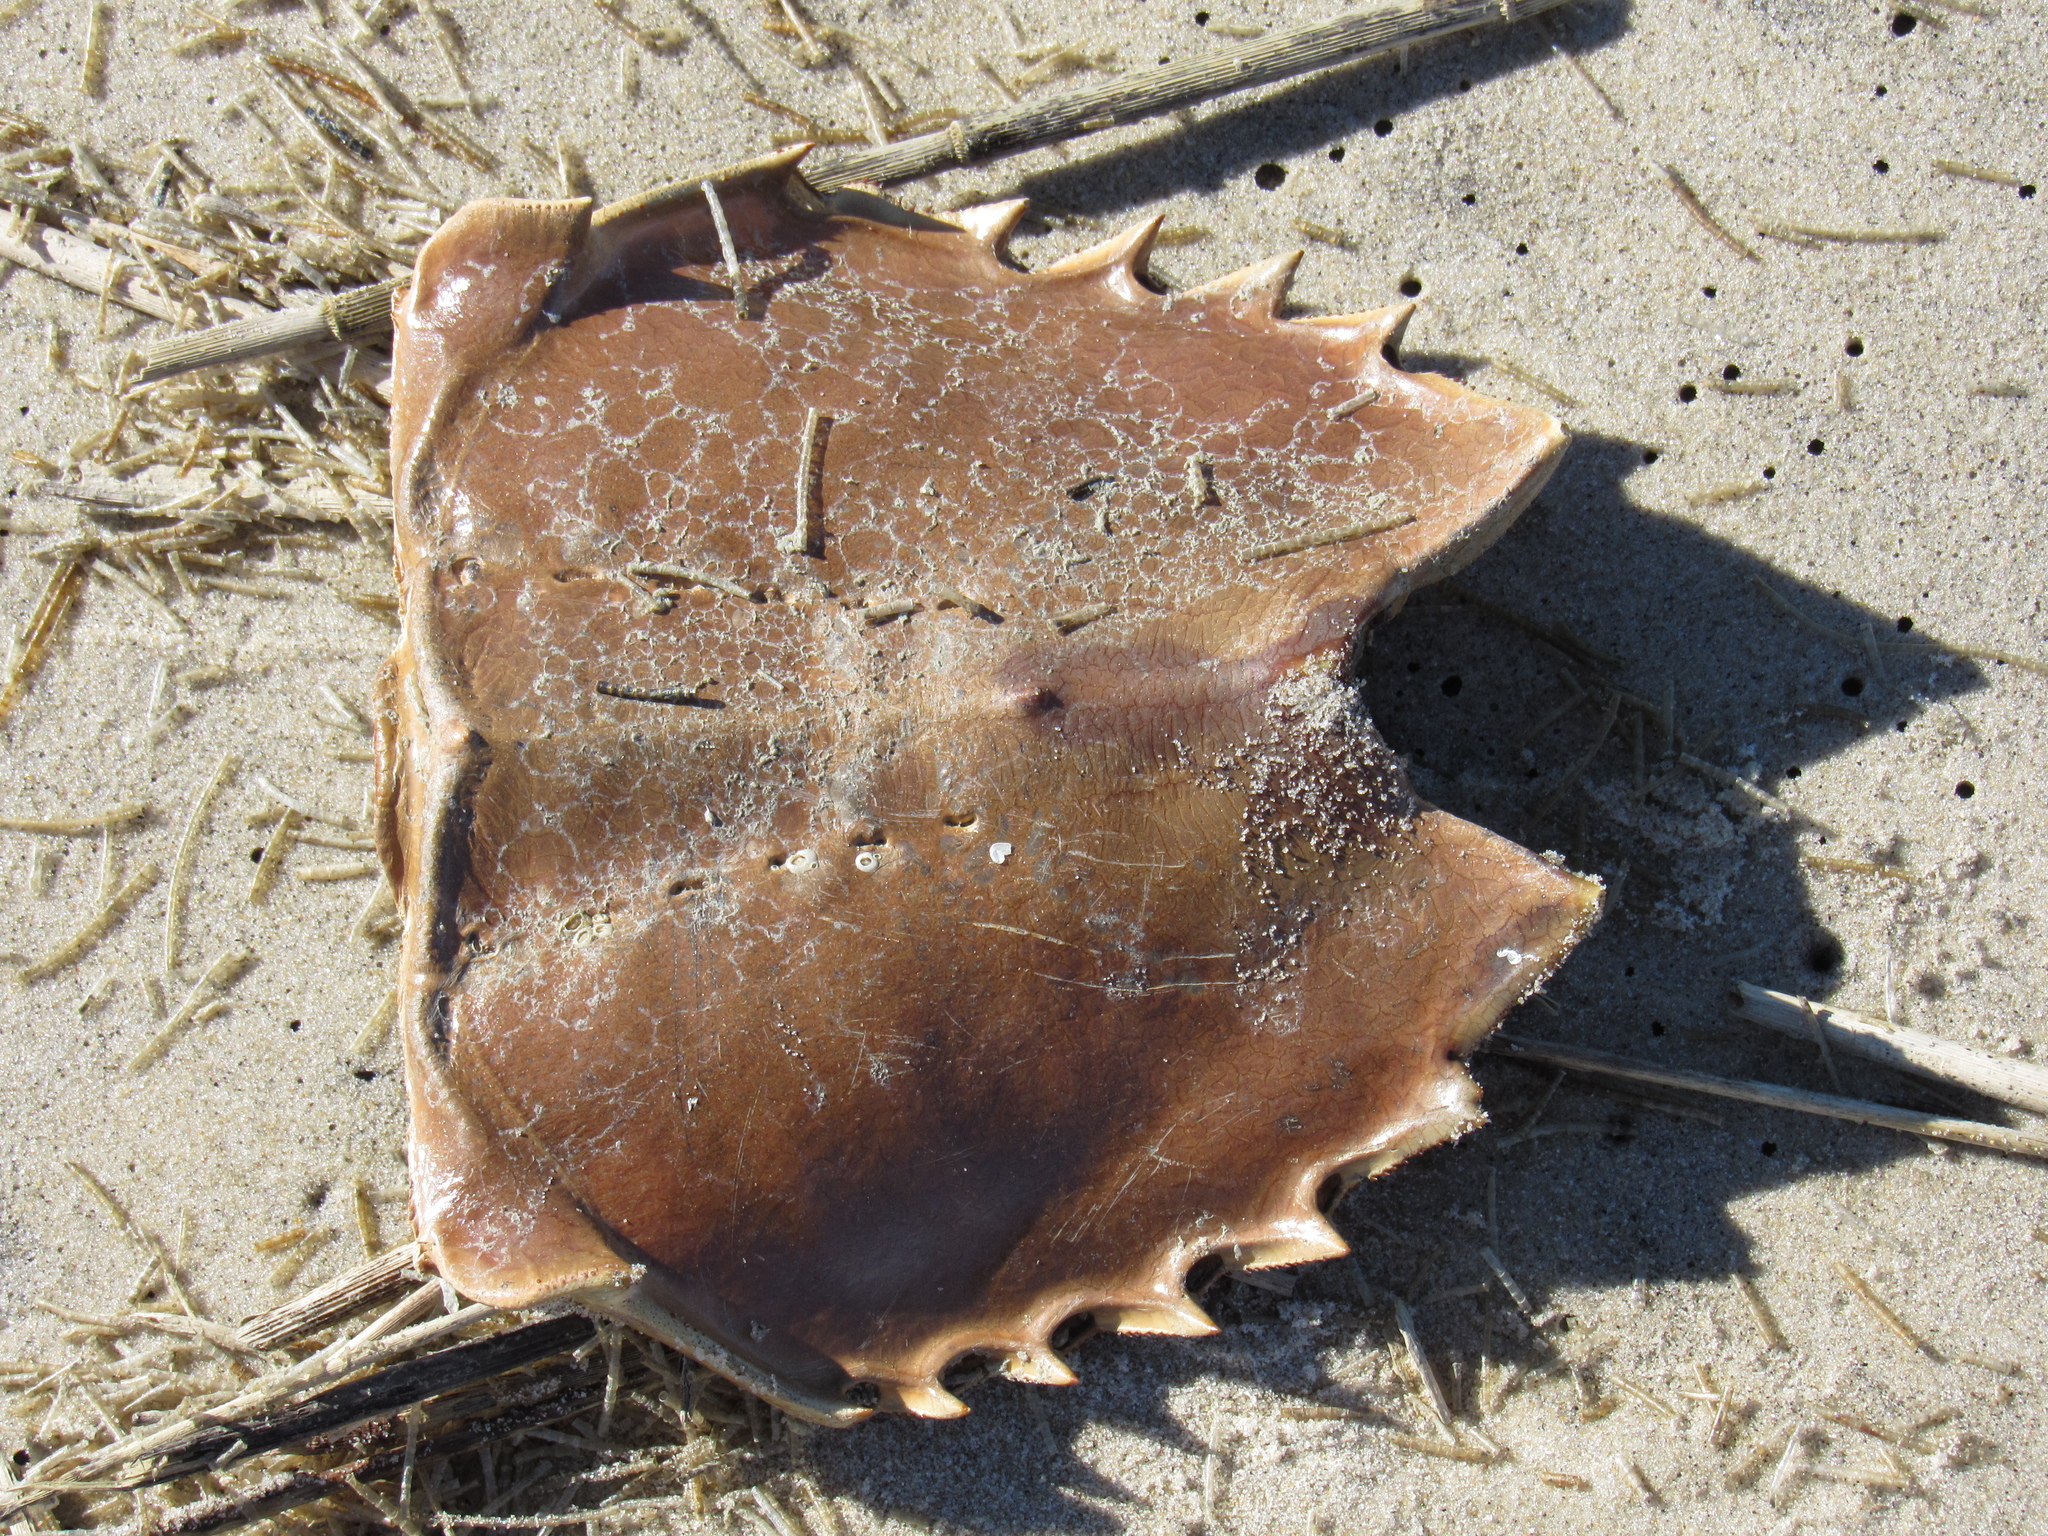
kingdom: Animalia
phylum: Arthropoda
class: Merostomata
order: Xiphosurida
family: Limulidae
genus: Limulus
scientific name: Limulus polyphemus
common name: Horseshoe crab
